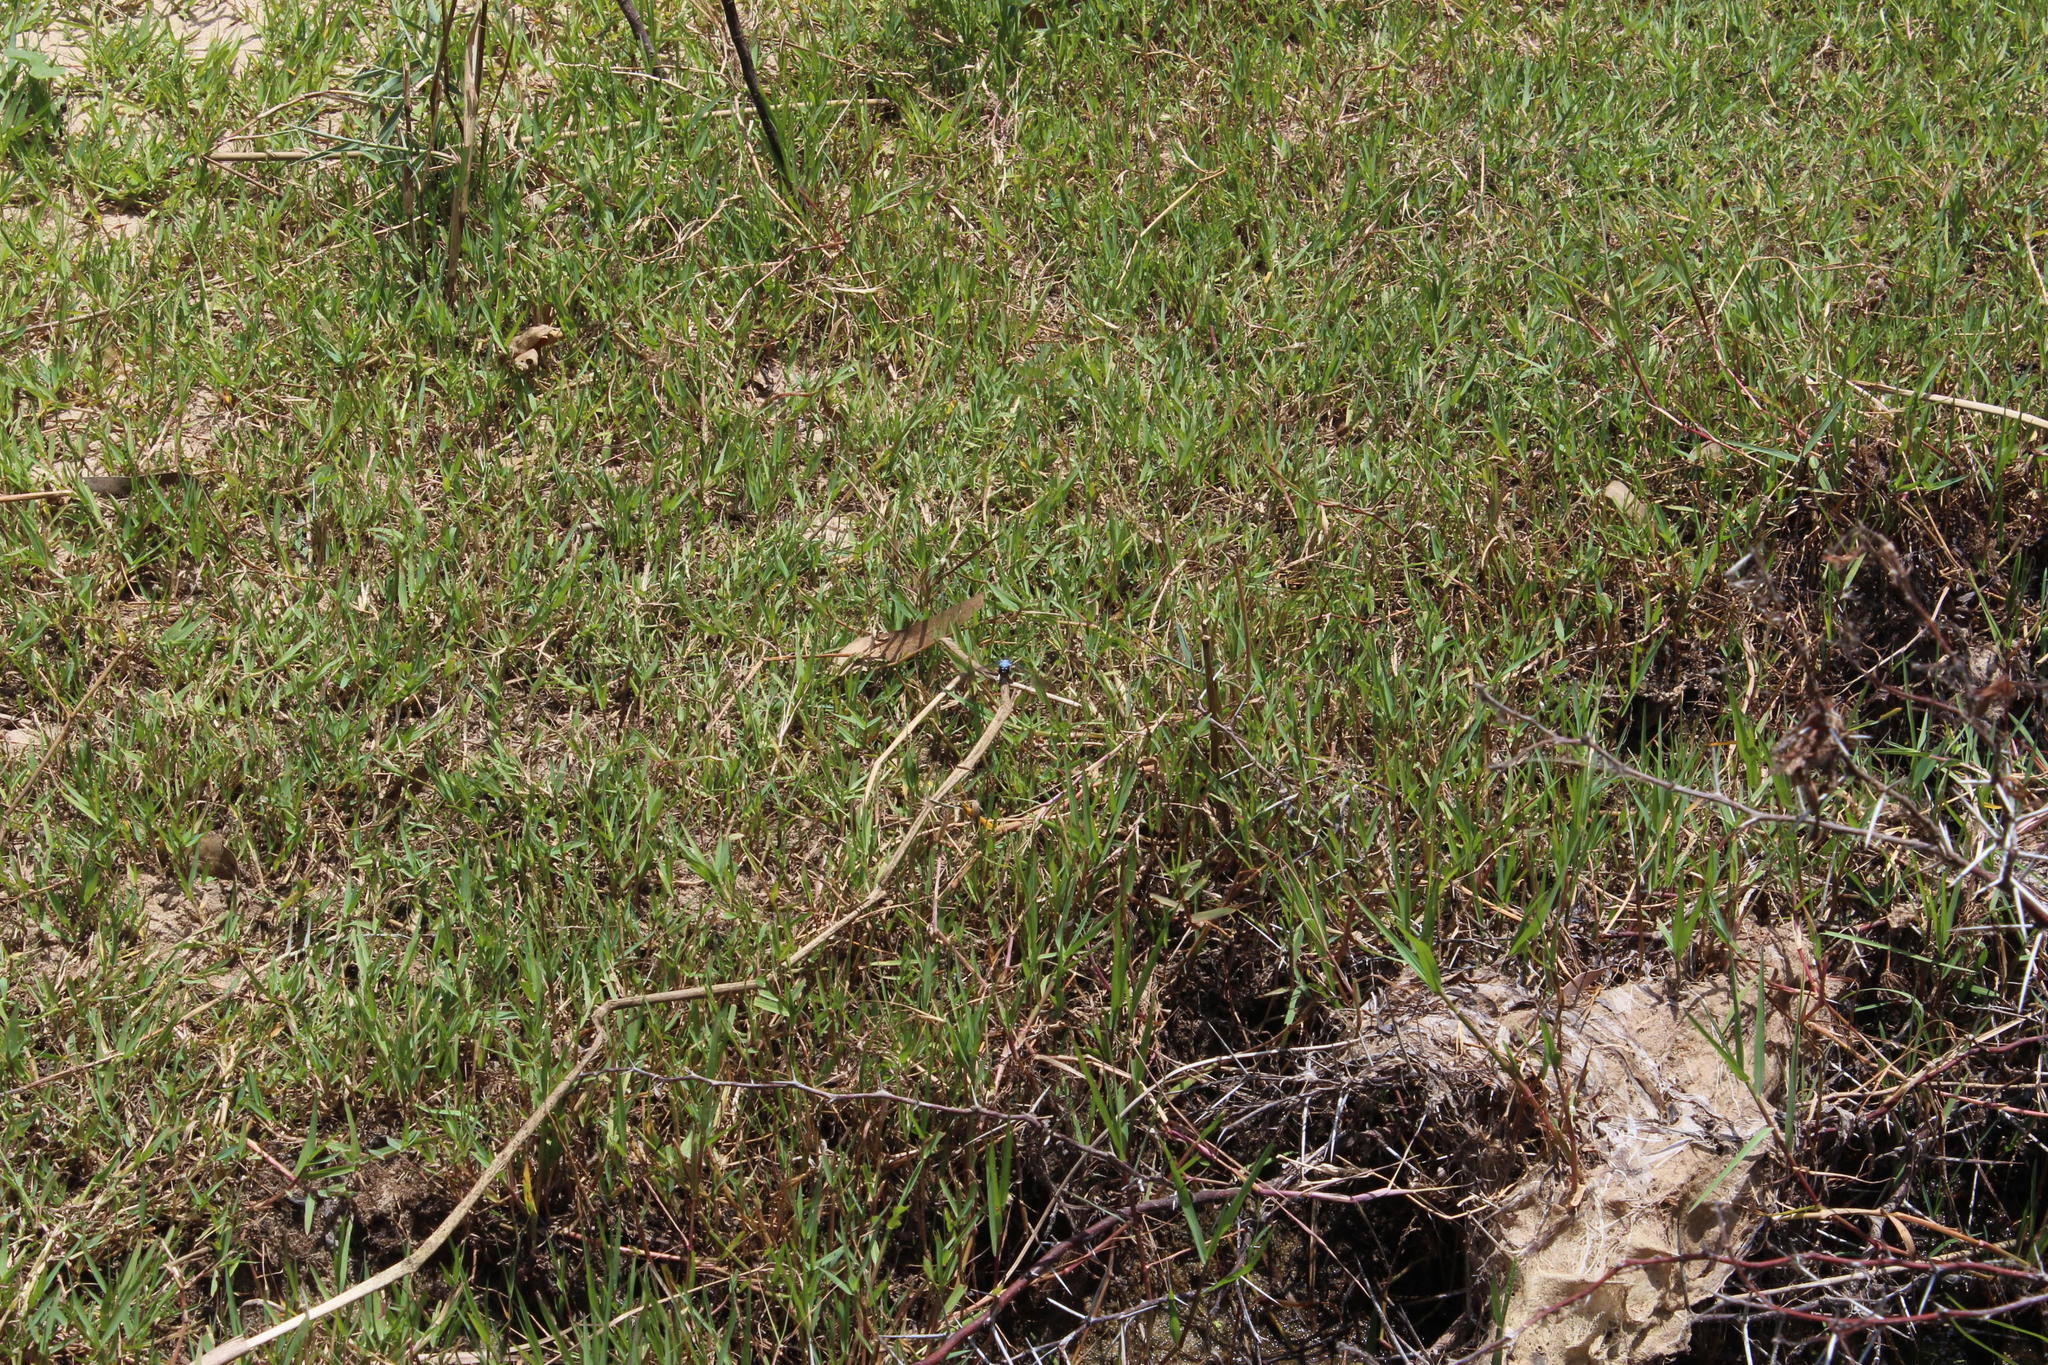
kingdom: Plantae
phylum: Tracheophyta
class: Liliopsida
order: Poales
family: Poaceae
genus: Paspalum
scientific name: Paspalum distichum
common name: Knotgrass
